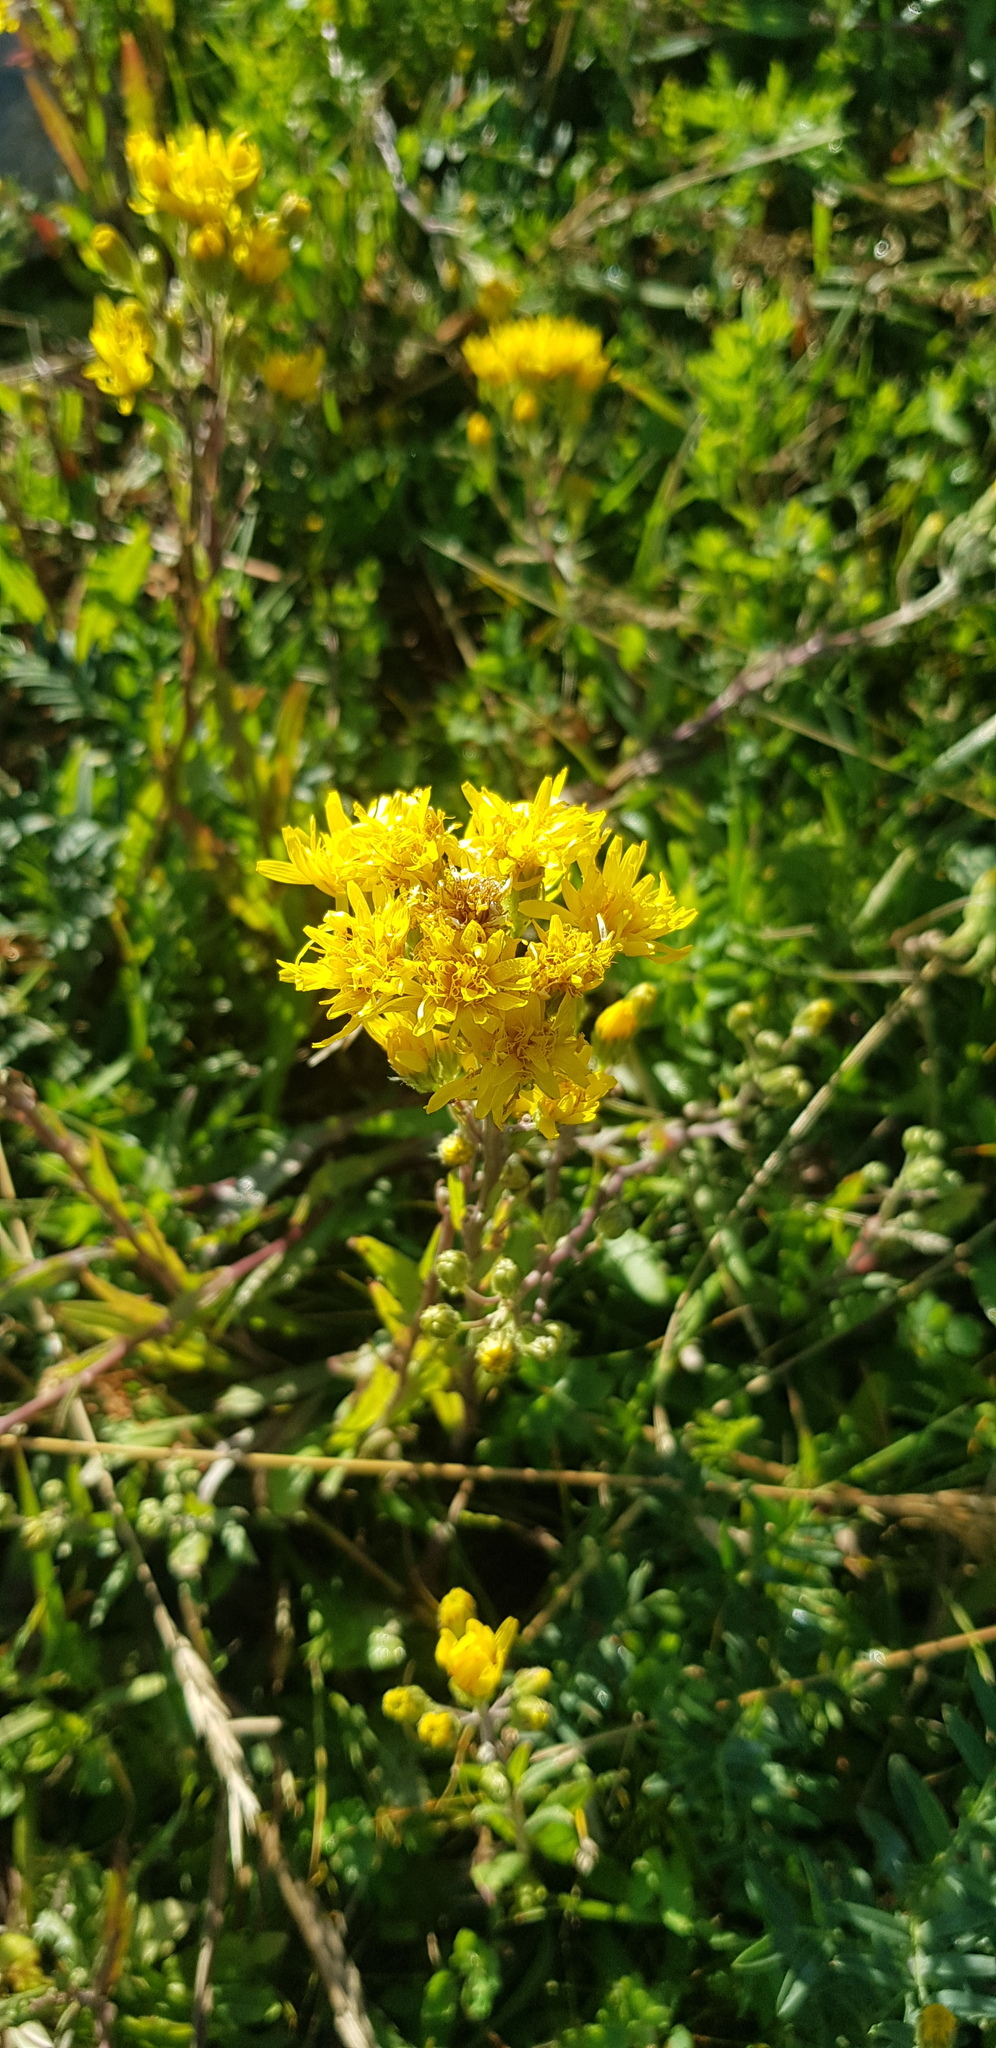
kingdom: Plantae
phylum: Tracheophyta
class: Magnoliopsida
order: Asterales
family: Asteraceae
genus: Hieracium
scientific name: Hieracium umbellatum
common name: Northern hawkweed
